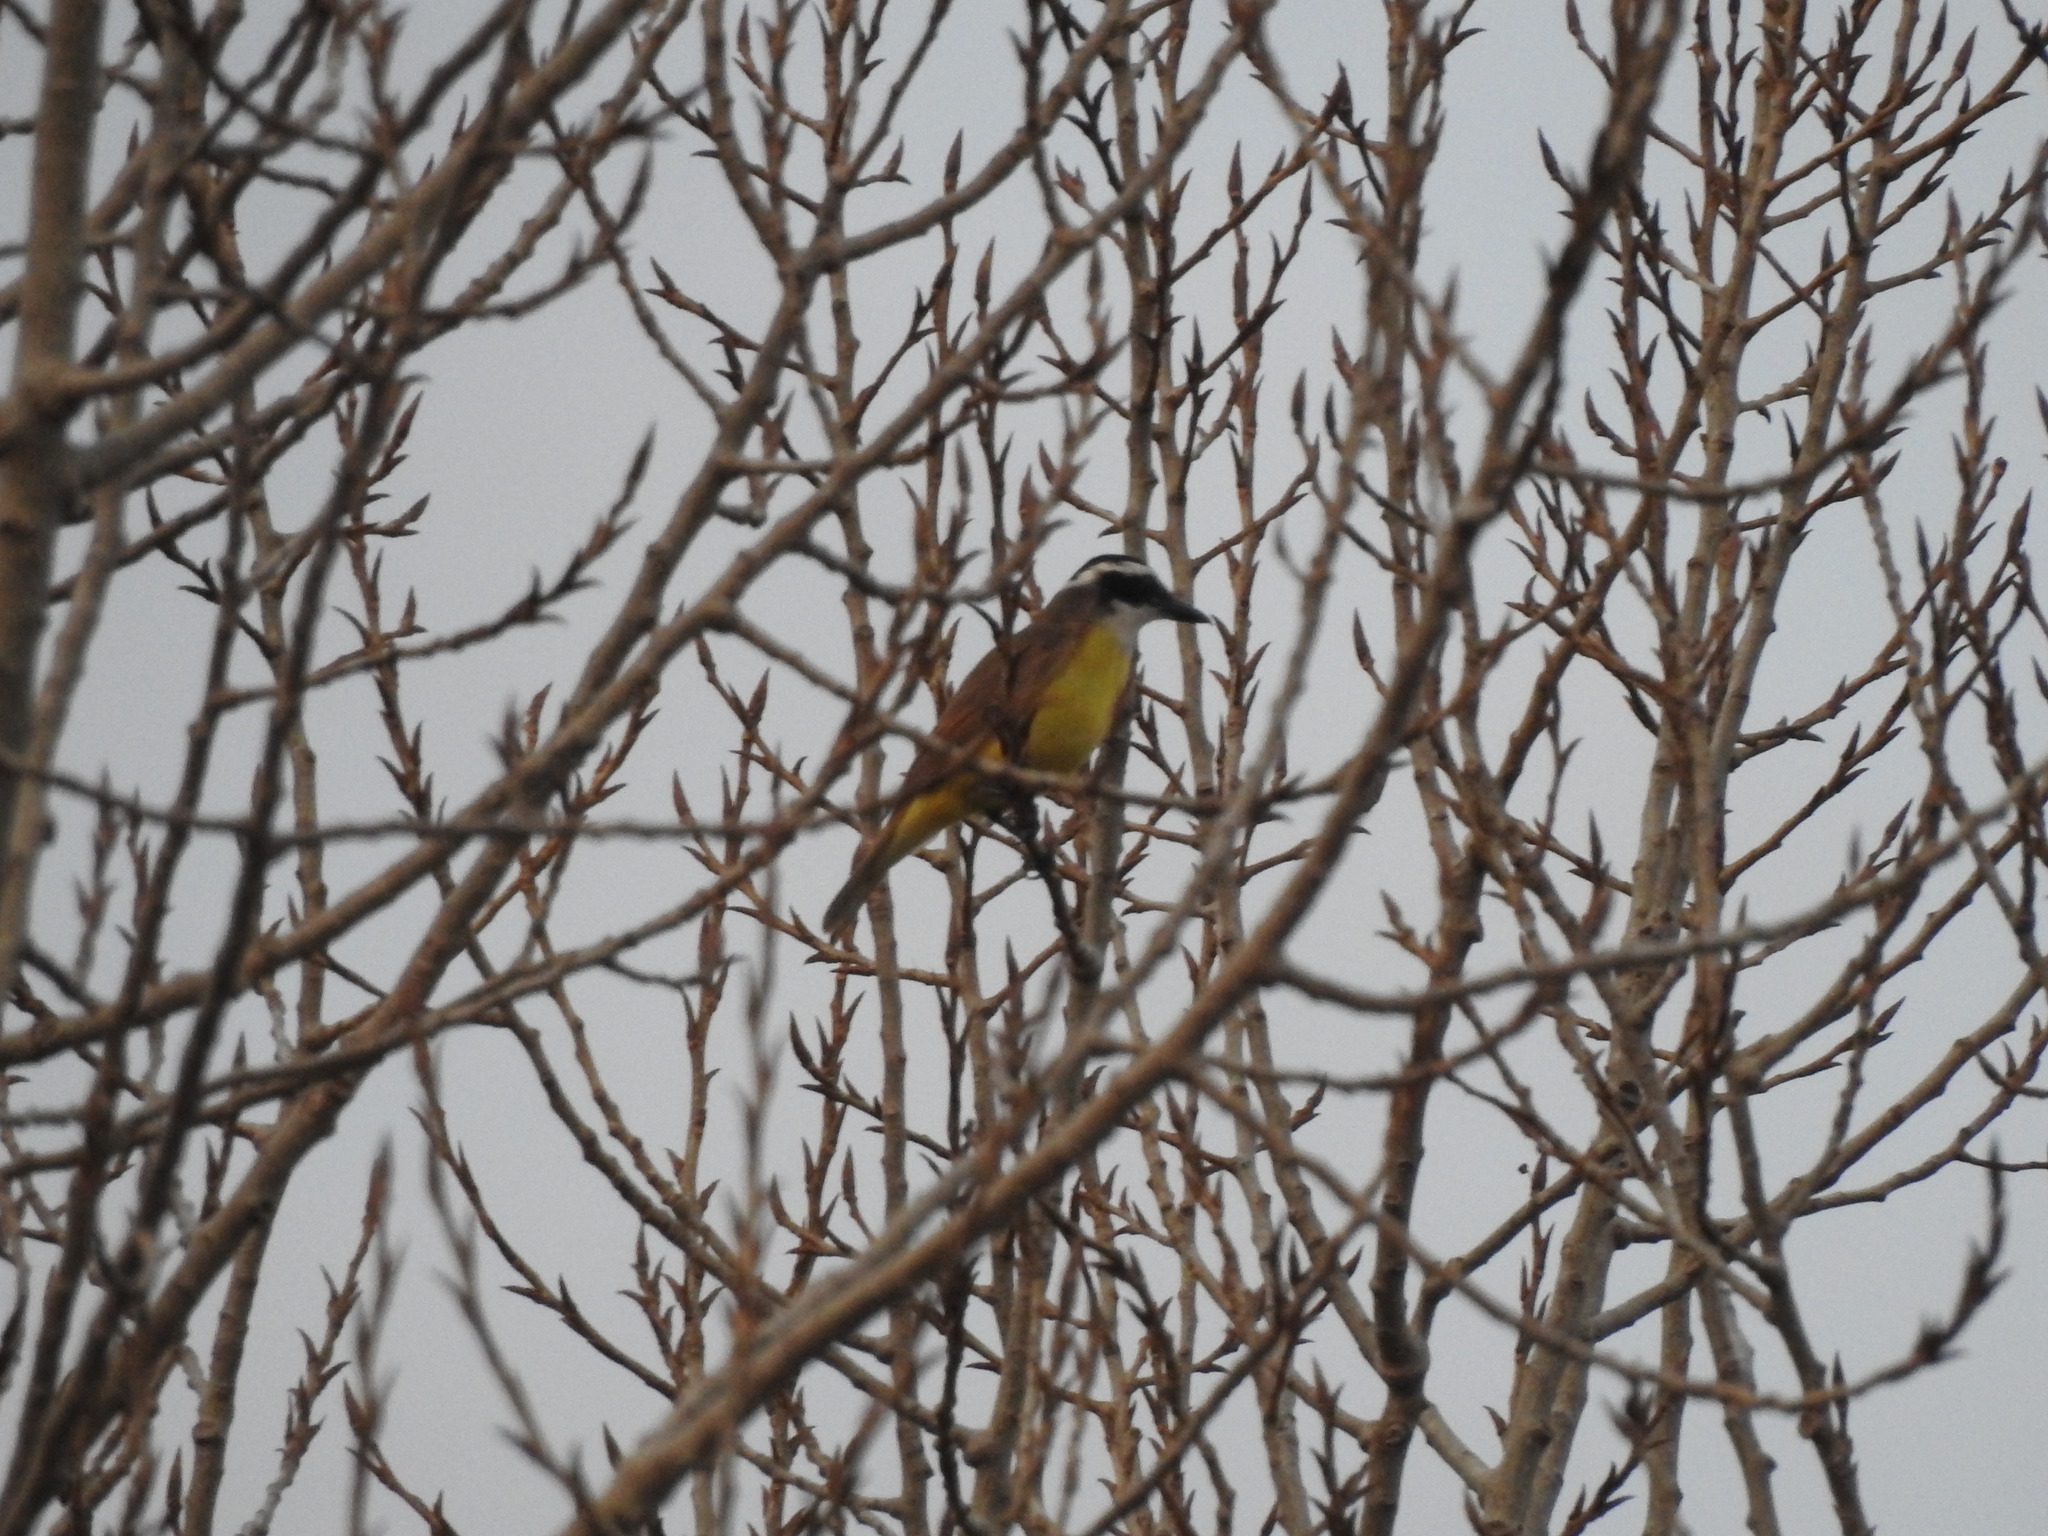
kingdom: Animalia
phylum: Chordata
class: Aves
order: Passeriformes
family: Tyrannidae
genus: Pitangus
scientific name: Pitangus sulphuratus
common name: Great kiskadee
